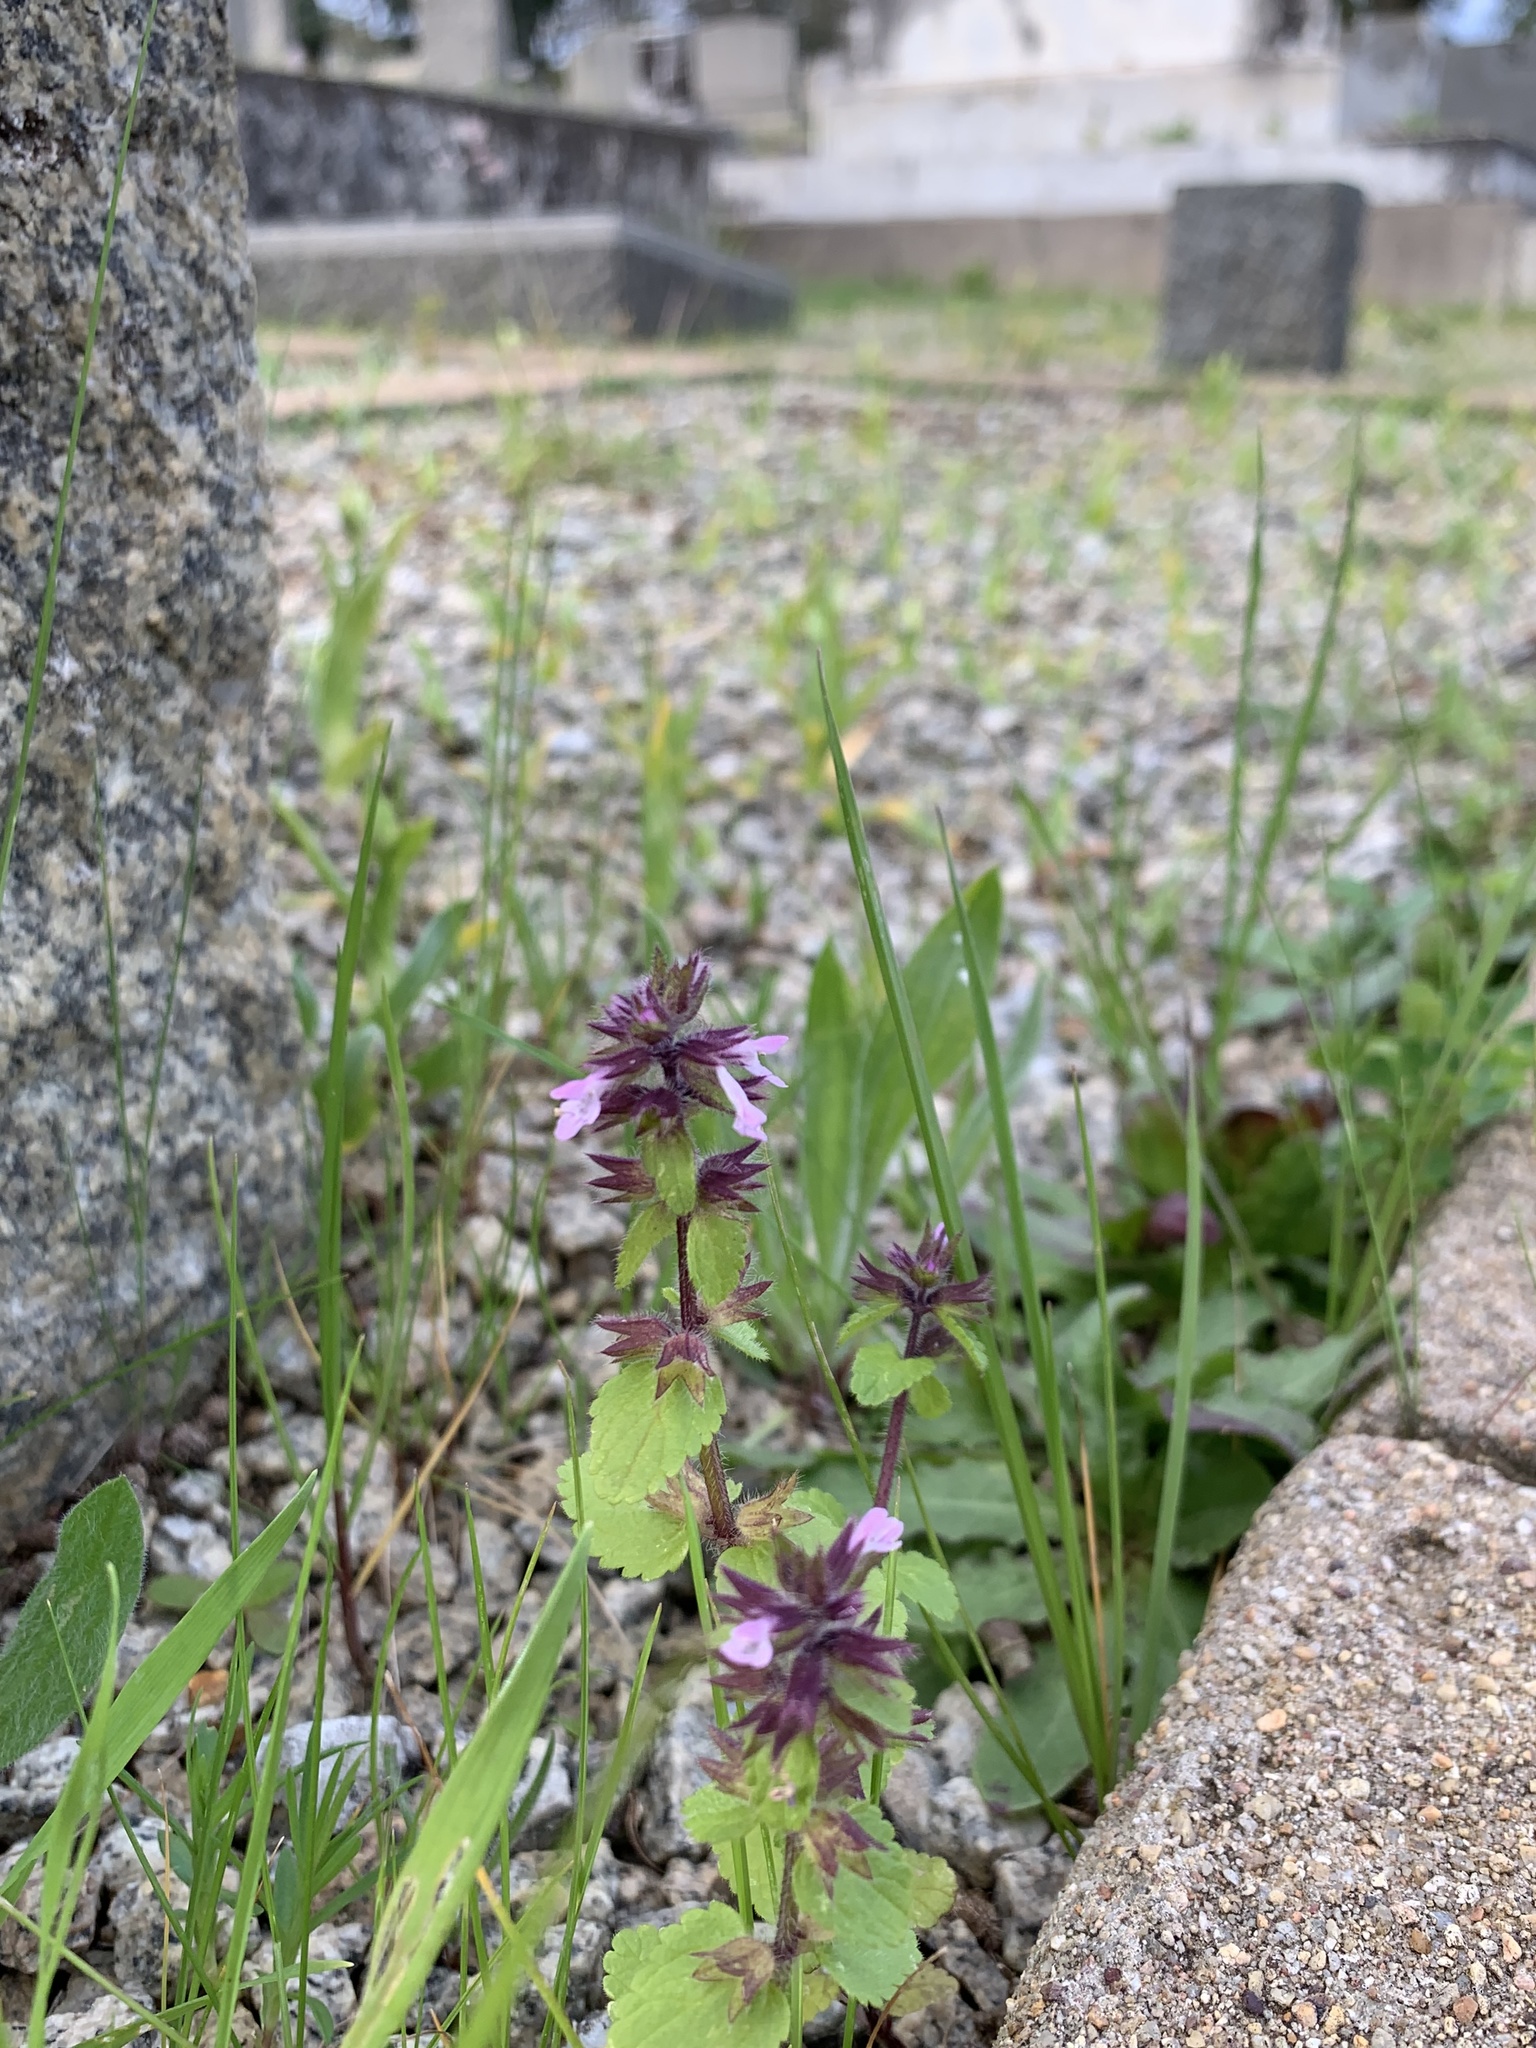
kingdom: Plantae
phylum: Tracheophyta
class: Magnoliopsida
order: Lamiales
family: Lamiaceae
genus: Stachys
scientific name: Stachys arvensis
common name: Field woundwort
